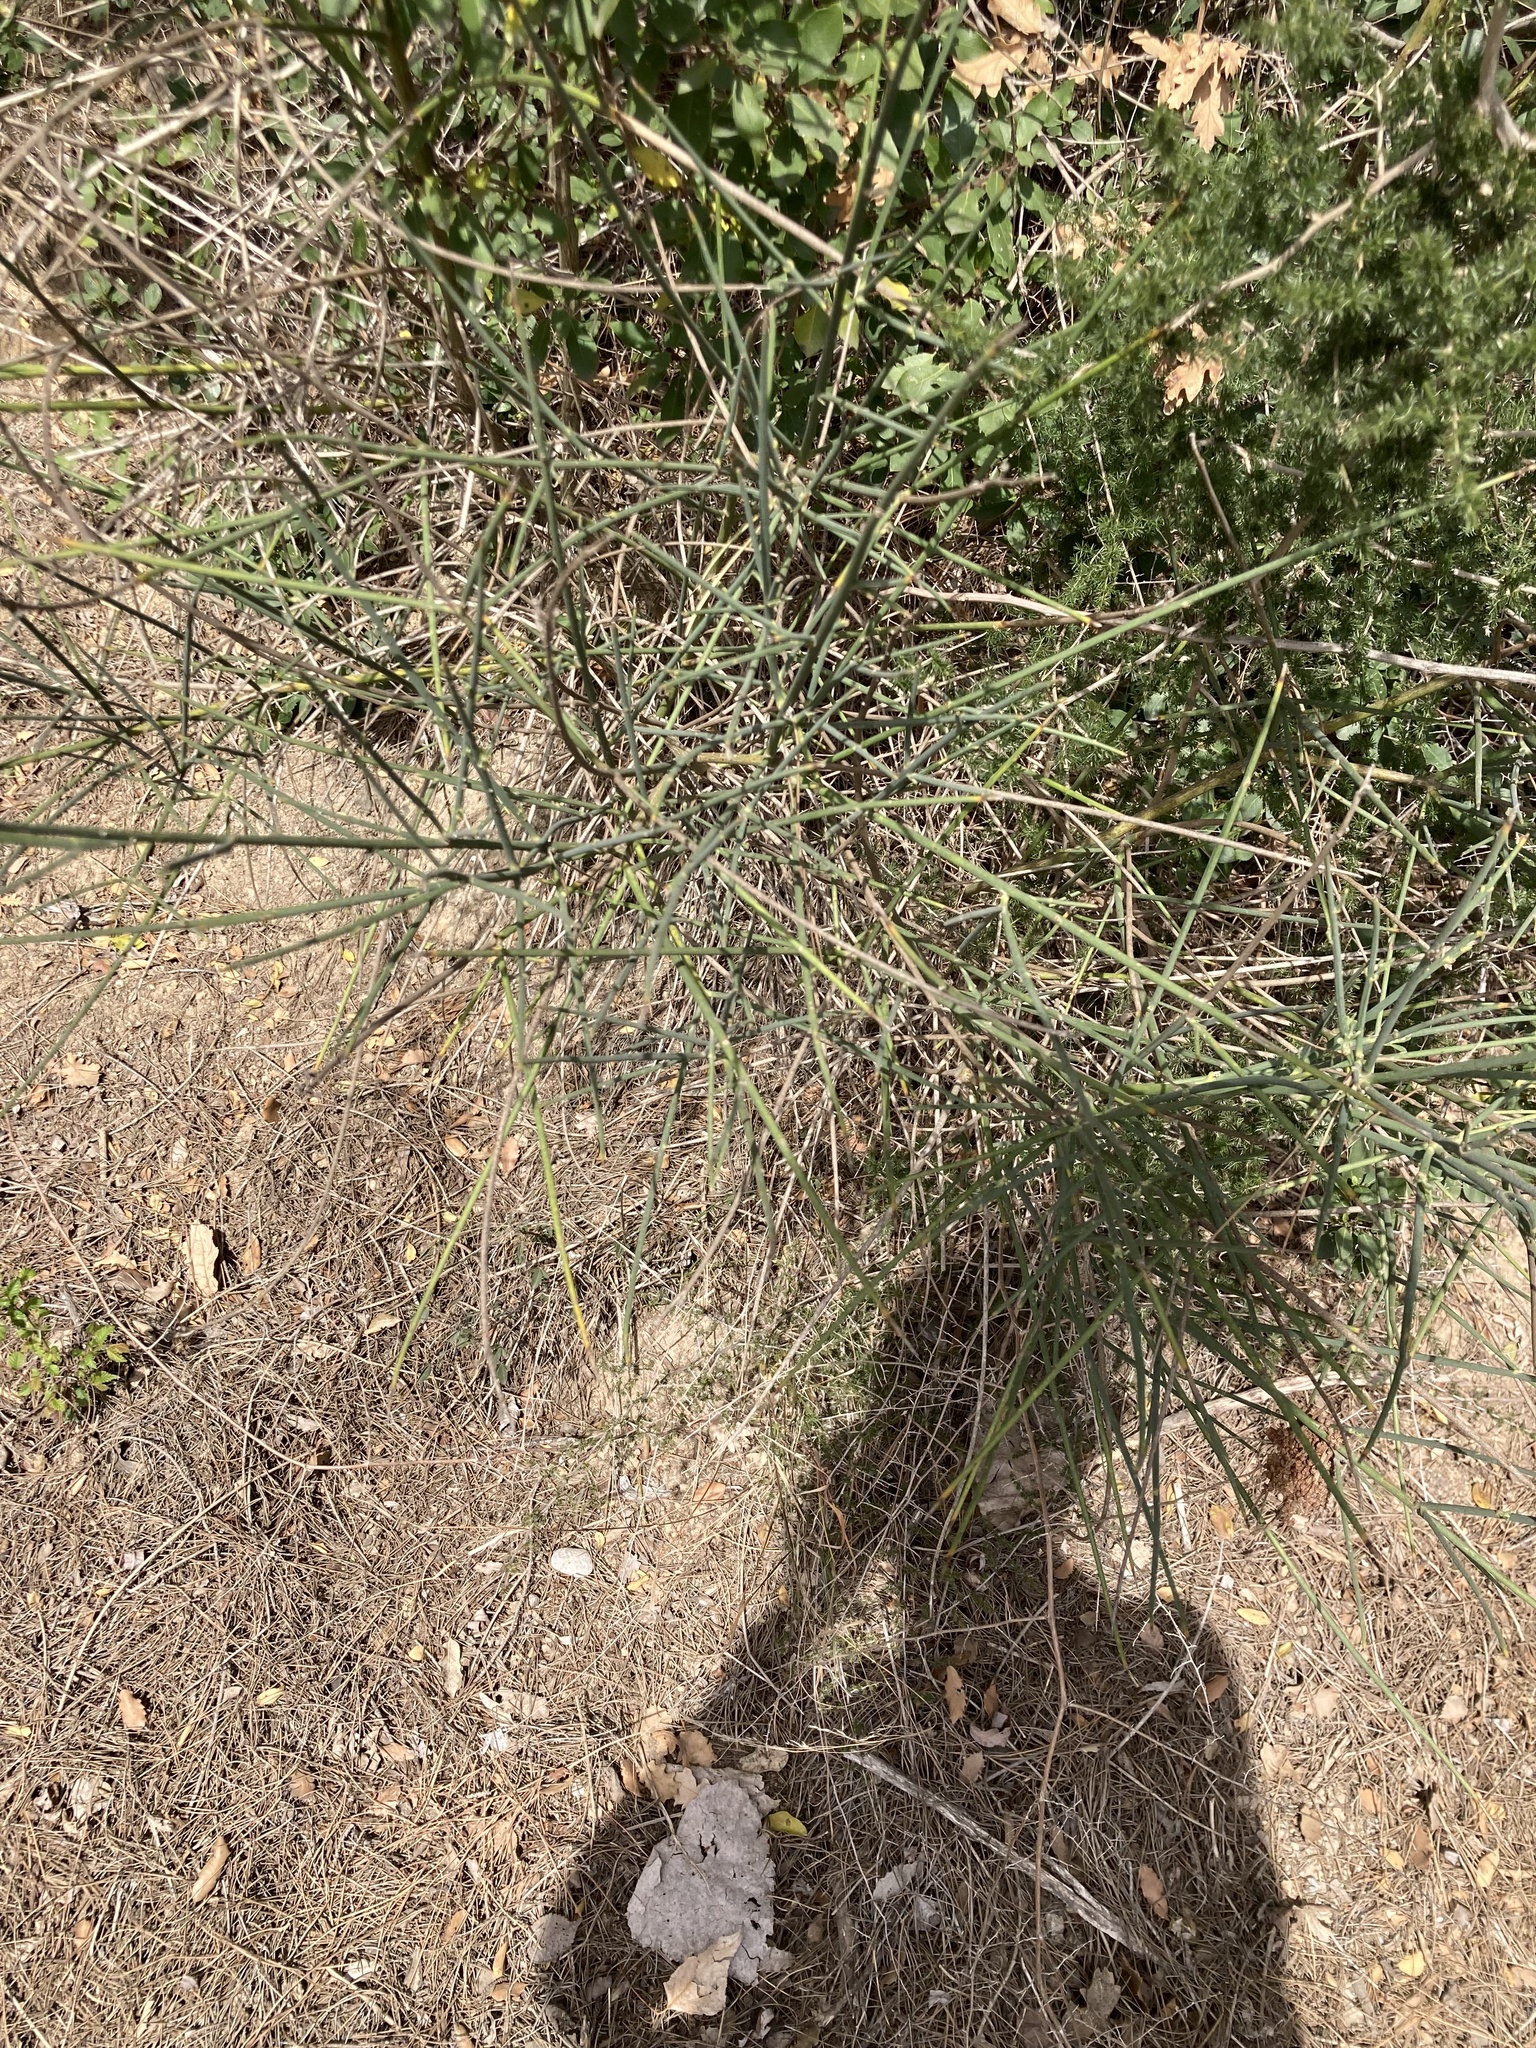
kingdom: Plantae
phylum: Tracheophyta
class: Magnoliopsida
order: Fabales
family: Fabaceae
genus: Spartium
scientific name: Spartium junceum
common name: Spanish broom
